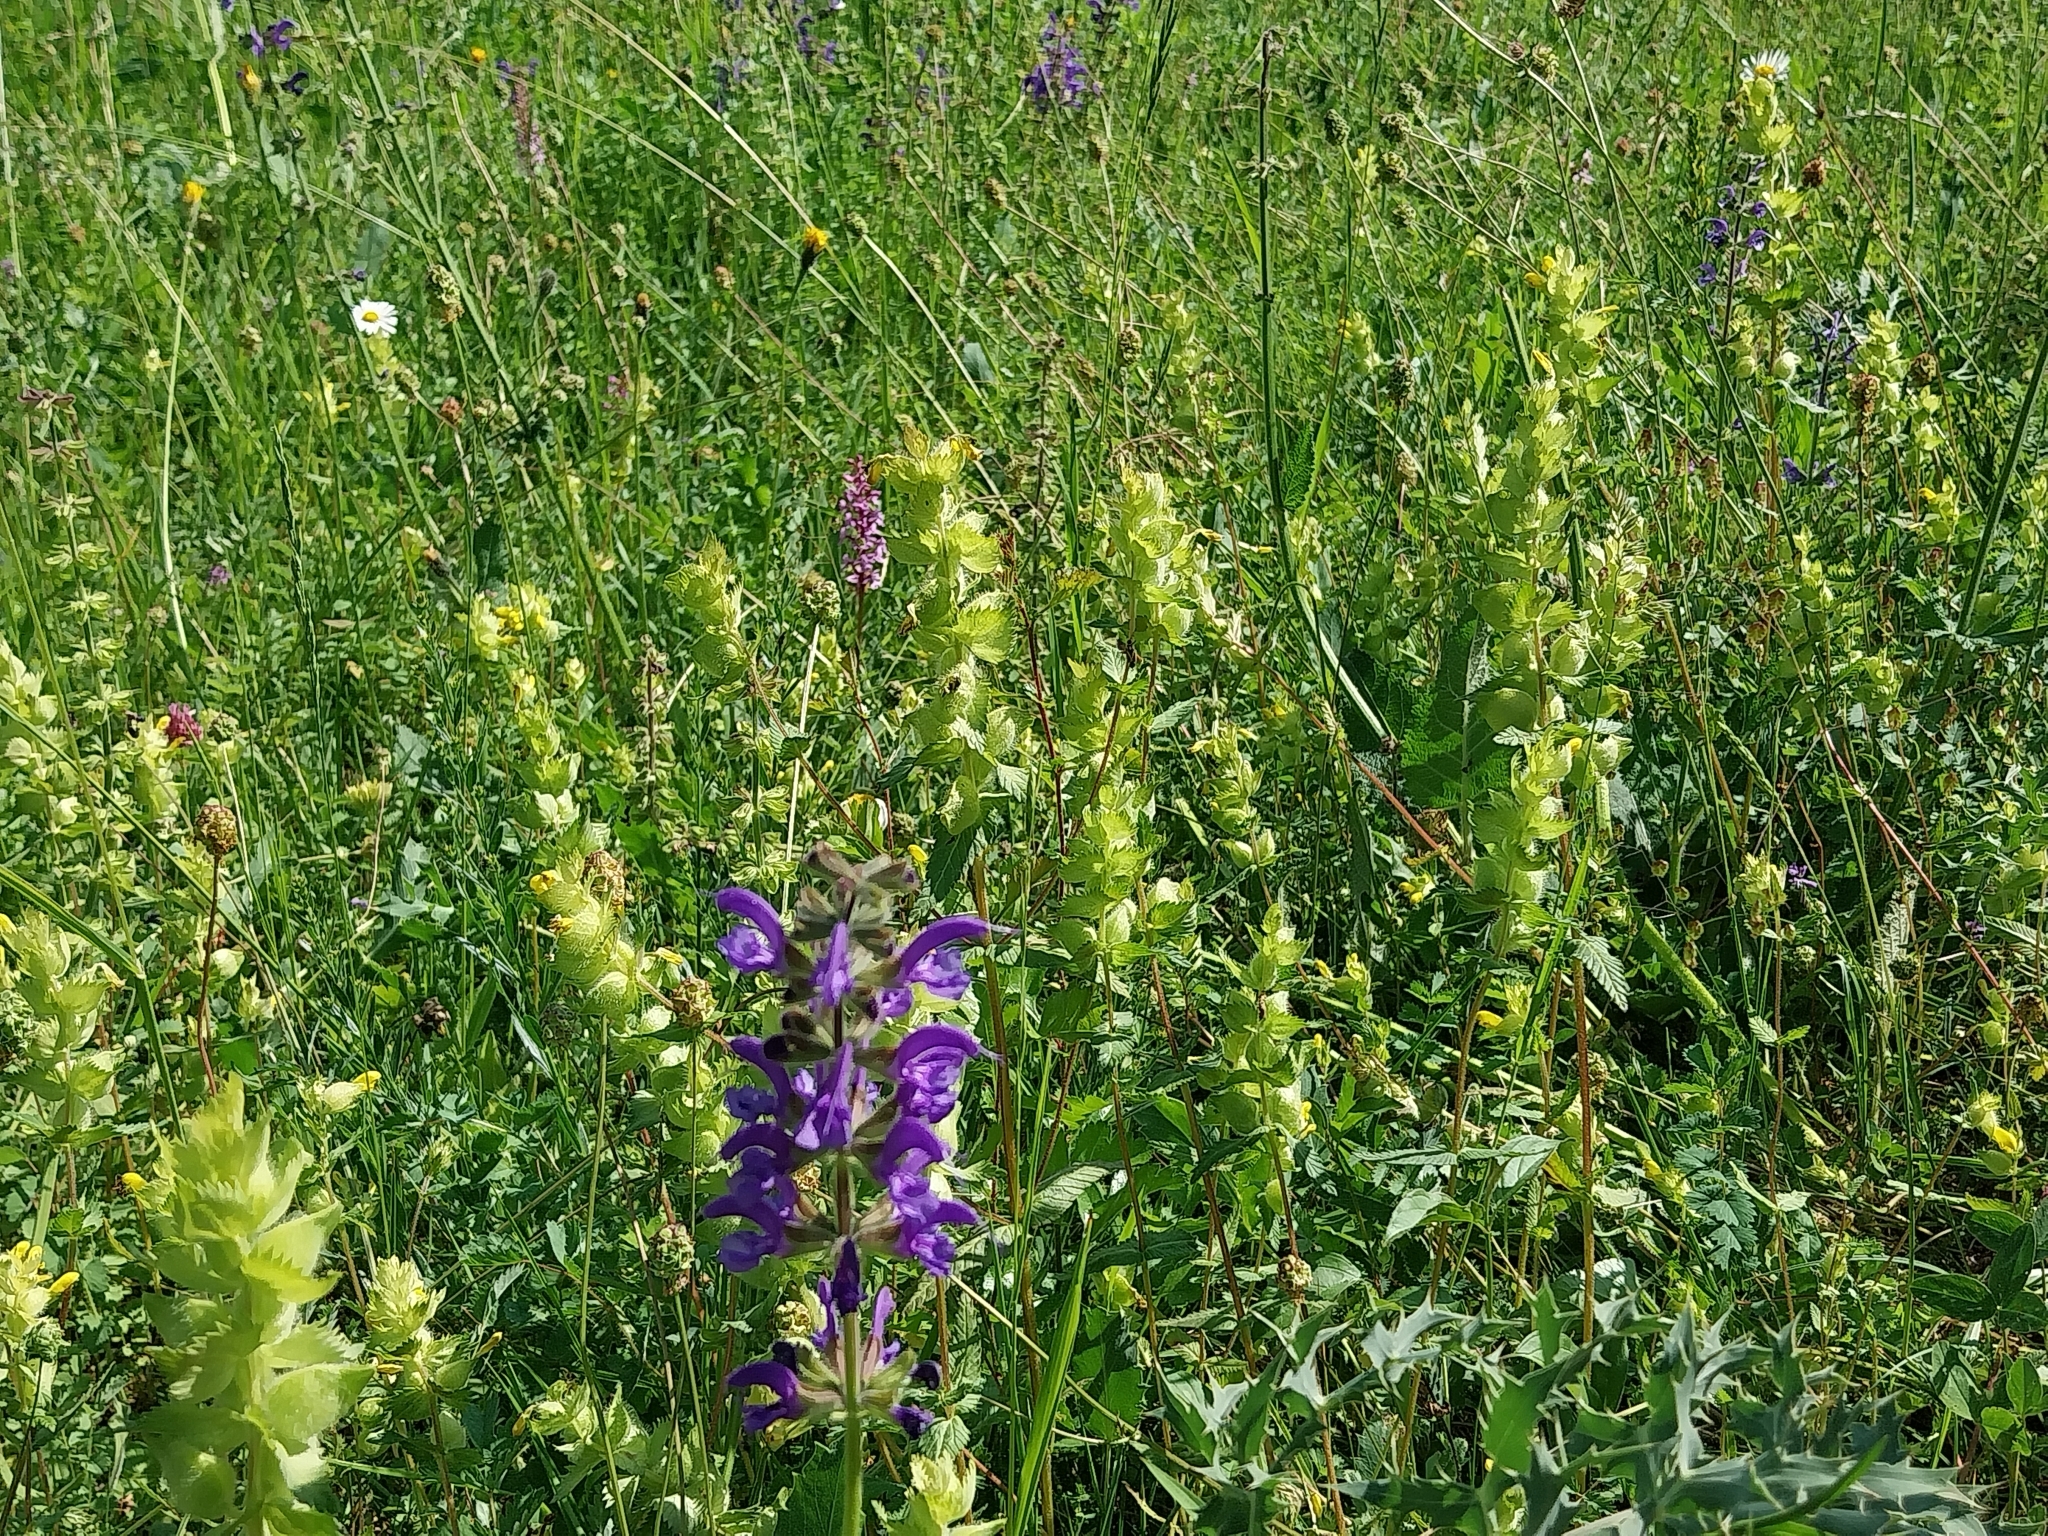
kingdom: Plantae
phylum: Tracheophyta
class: Magnoliopsida
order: Lamiales
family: Orobanchaceae
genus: Rhinanthus
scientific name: Rhinanthus alectorolophus
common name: Greater yellow-rattle
